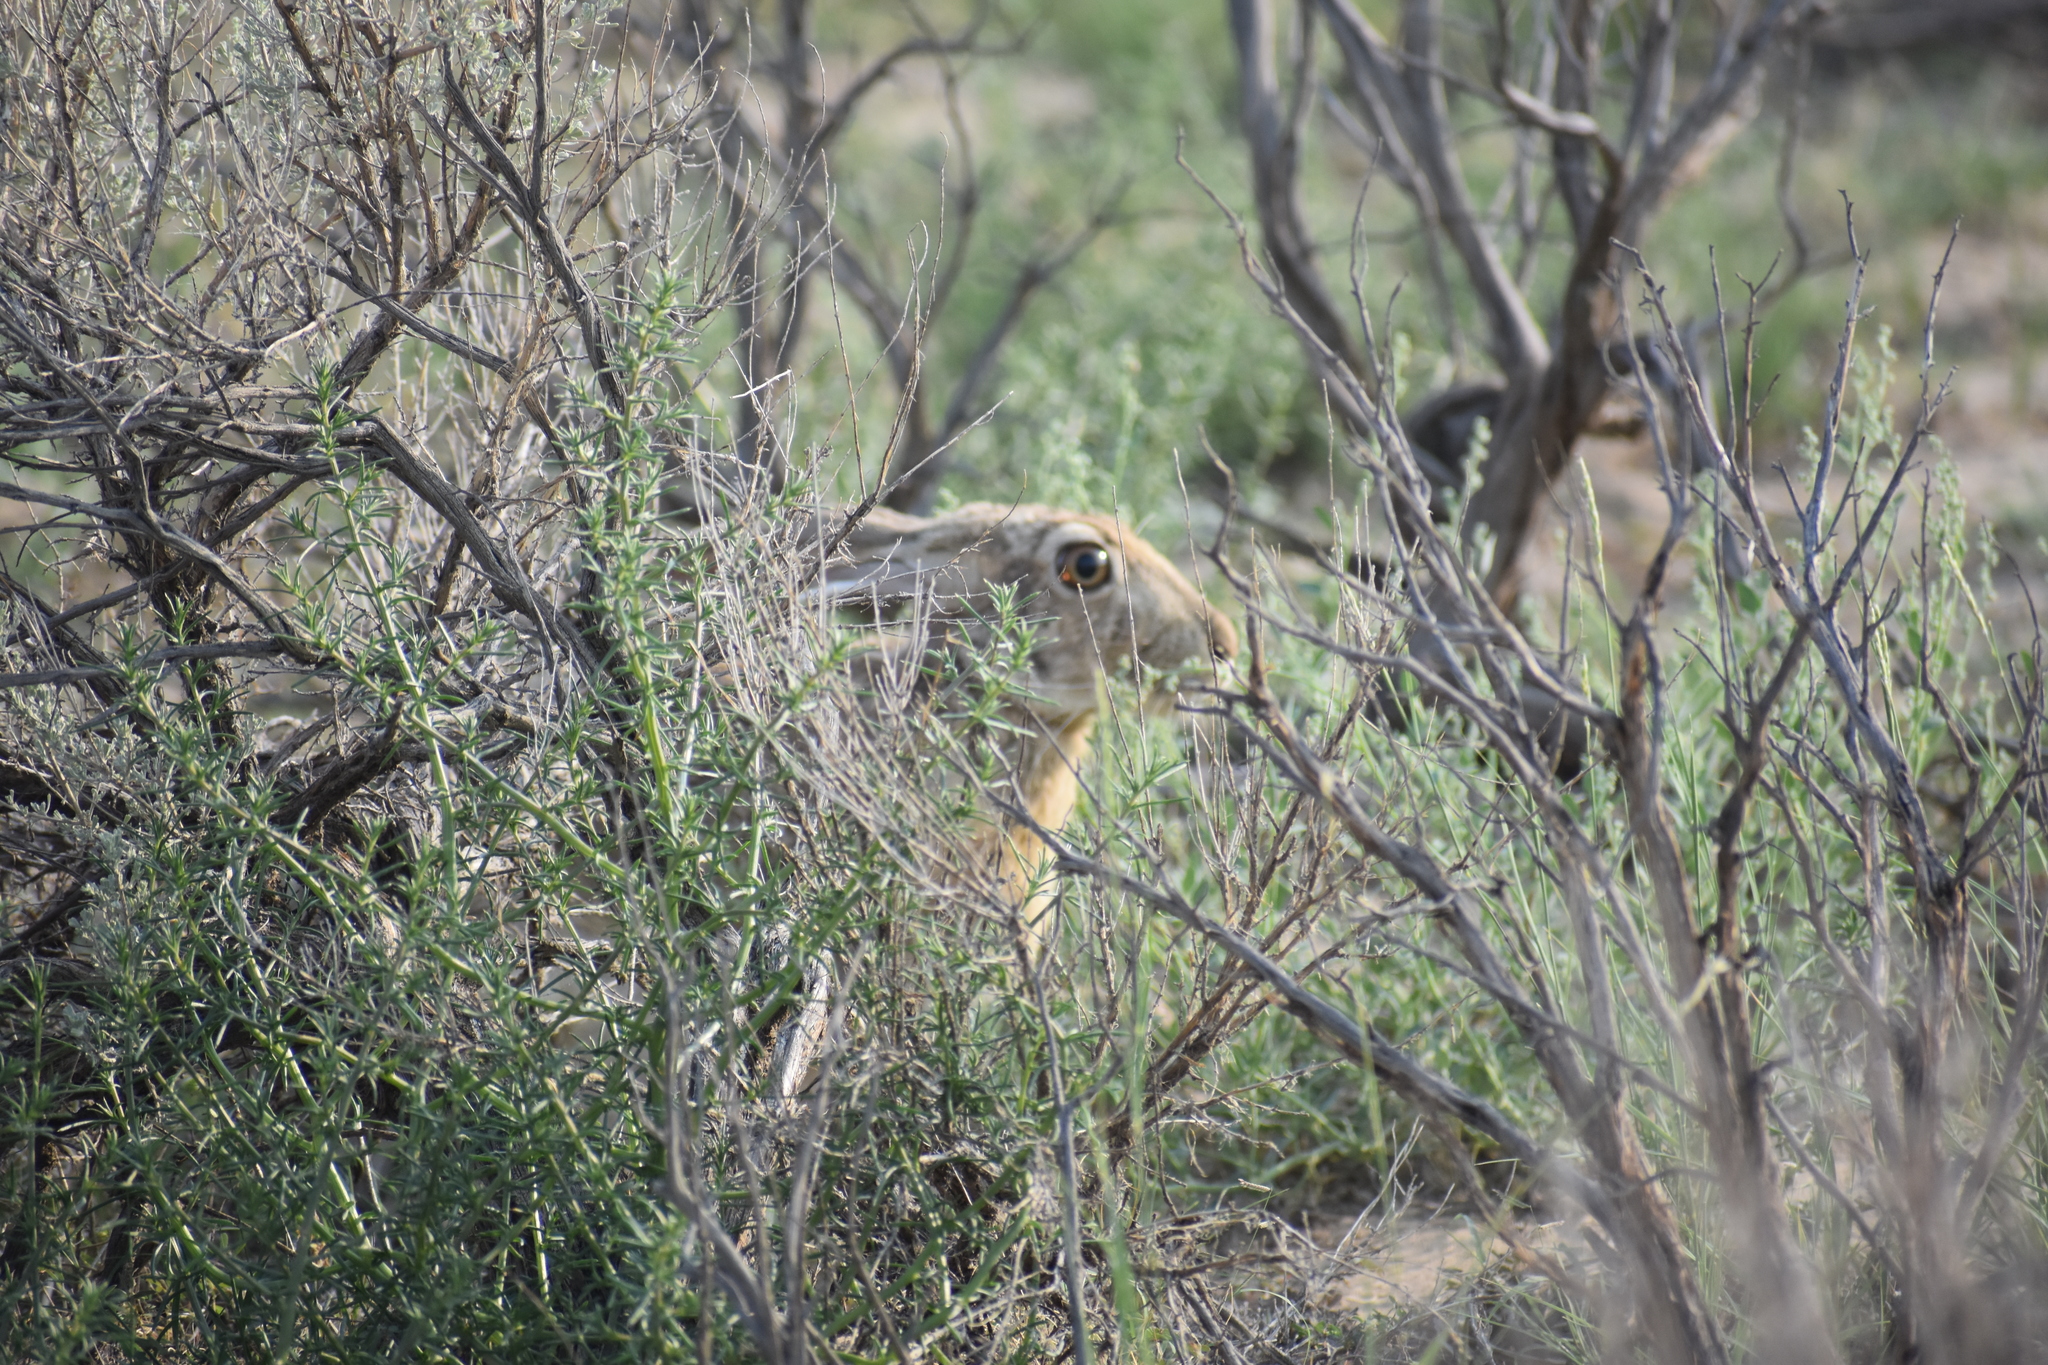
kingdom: Animalia
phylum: Chordata
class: Mammalia
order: Lagomorpha
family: Leporidae
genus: Lepus
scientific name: Lepus californicus
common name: Black-tailed jackrabbit
